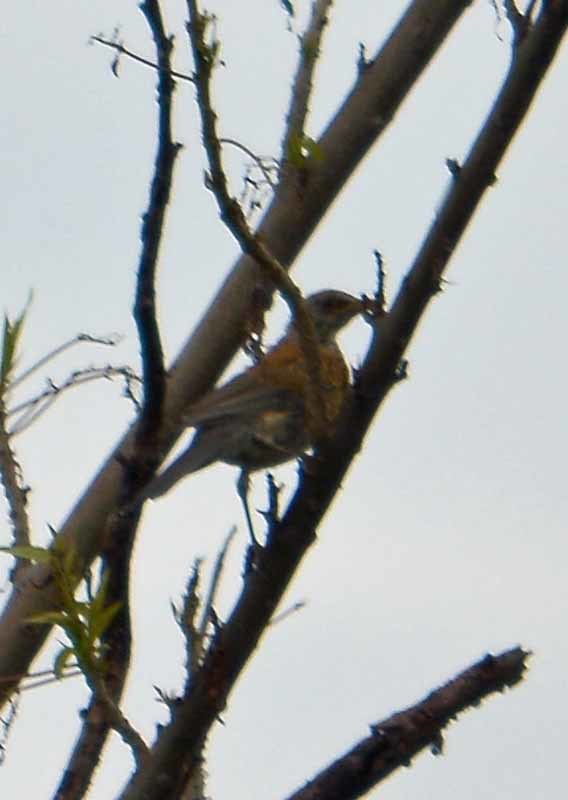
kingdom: Animalia
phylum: Chordata
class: Aves
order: Passeriformes
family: Turdidae
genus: Turdus
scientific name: Turdus rufopalliatus
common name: Rufous-backed robin
